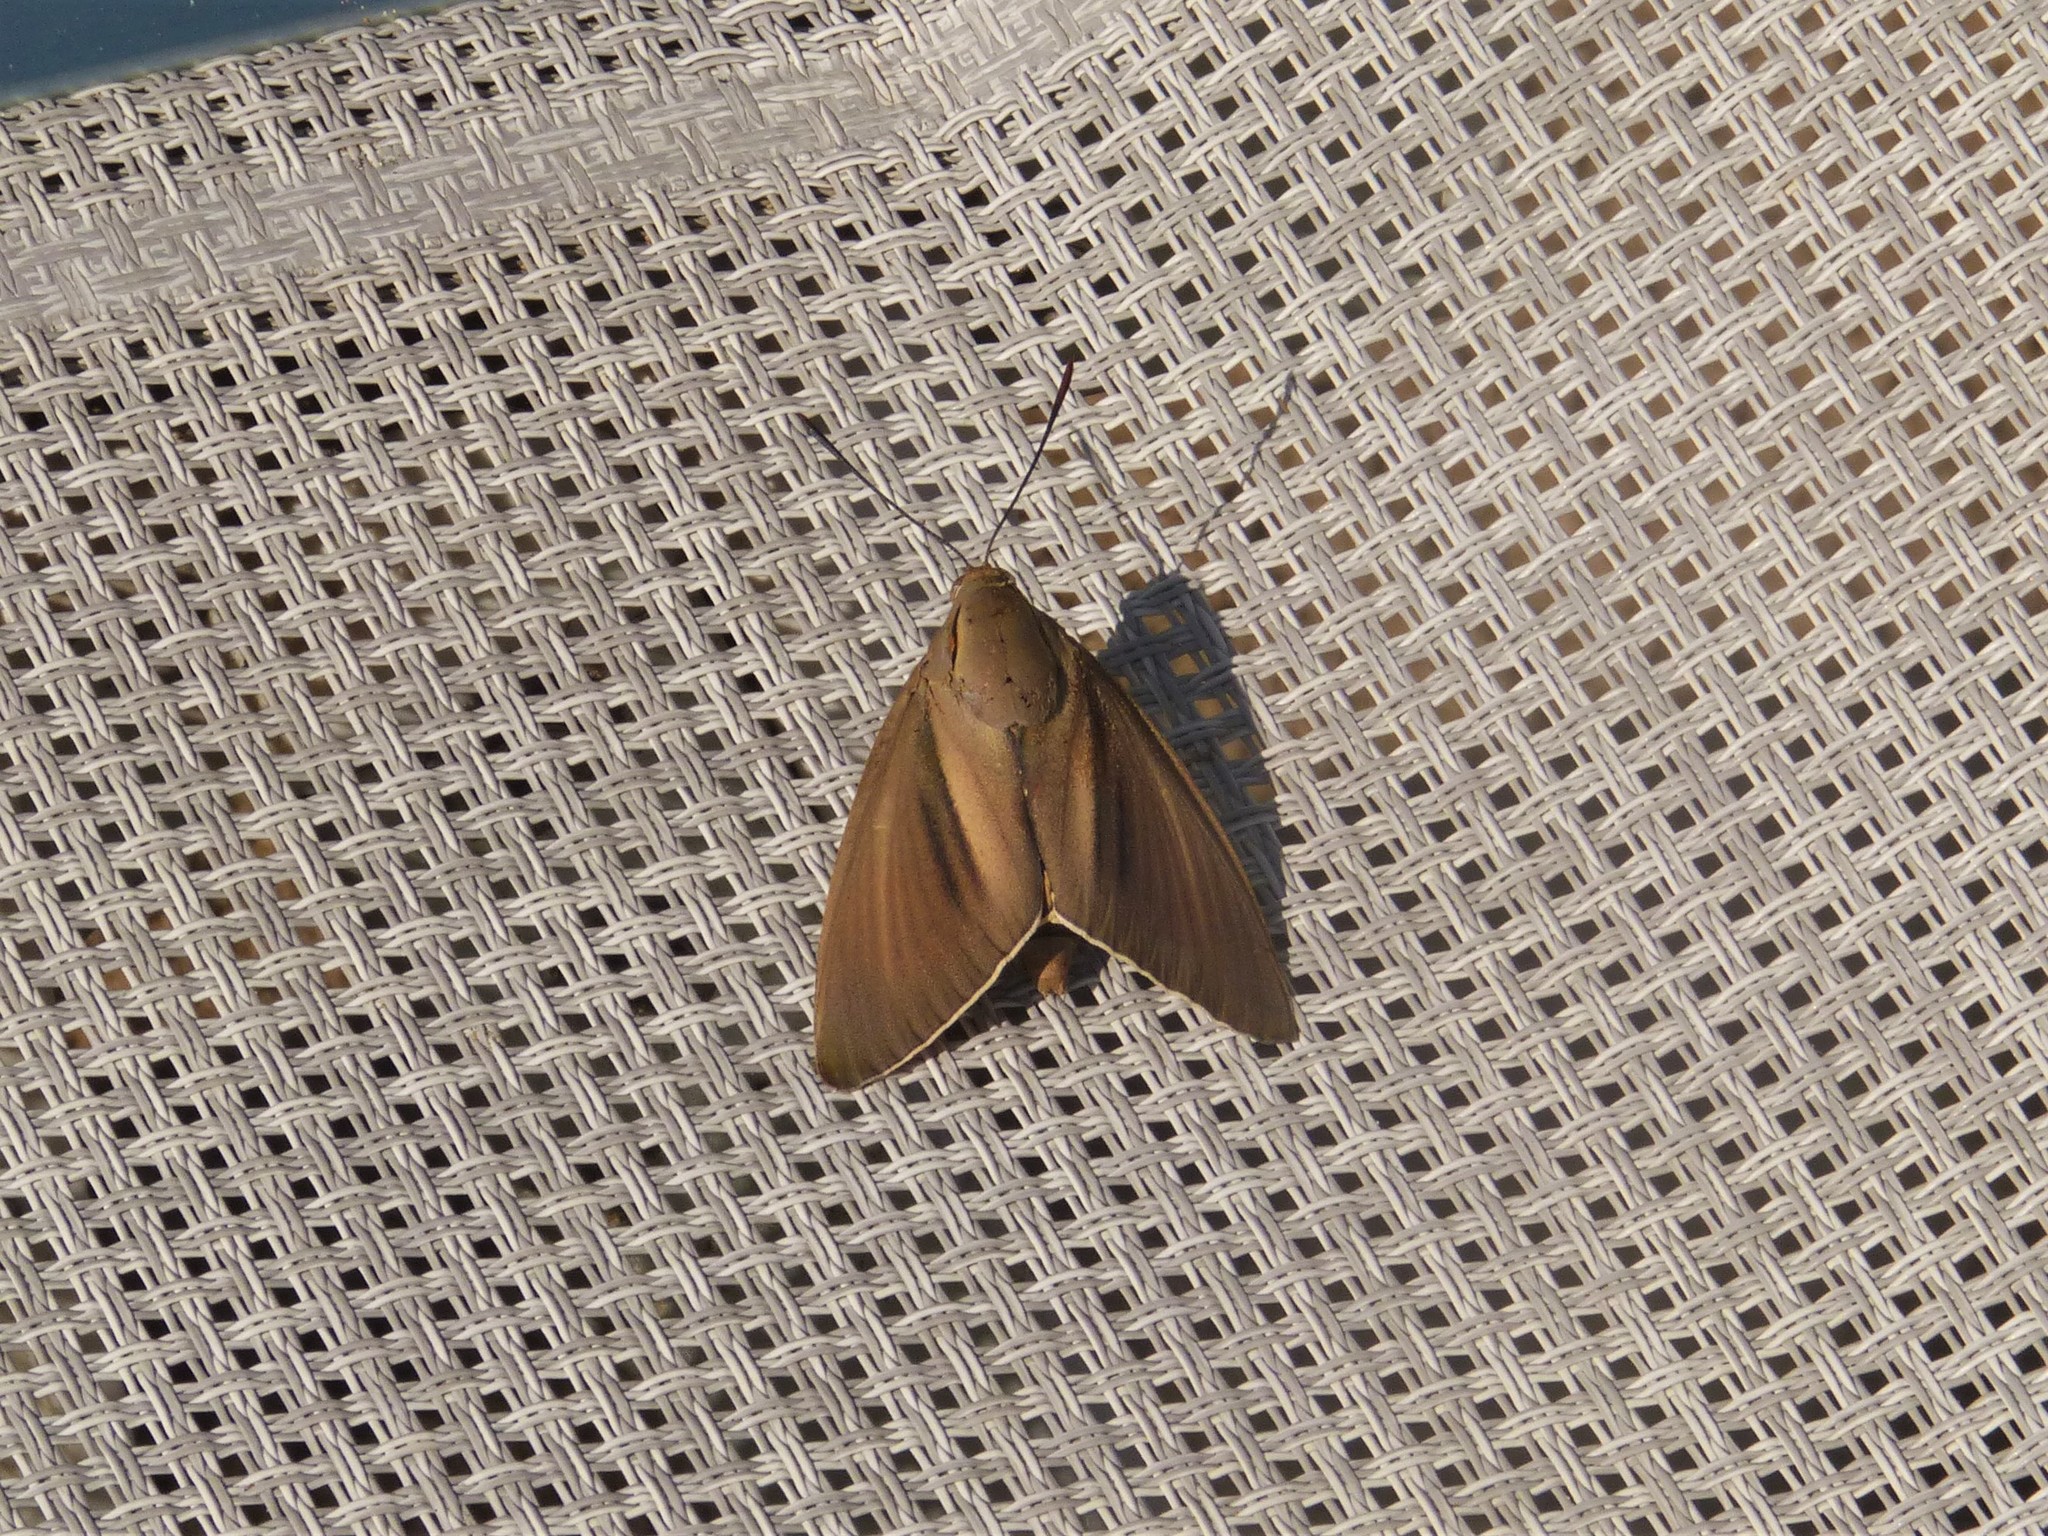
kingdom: Animalia
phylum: Arthropoda
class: Insecta
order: Lepidoptera
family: Castniidae
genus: Paysandisia
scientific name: Paysandisia archon
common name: Palm moth
